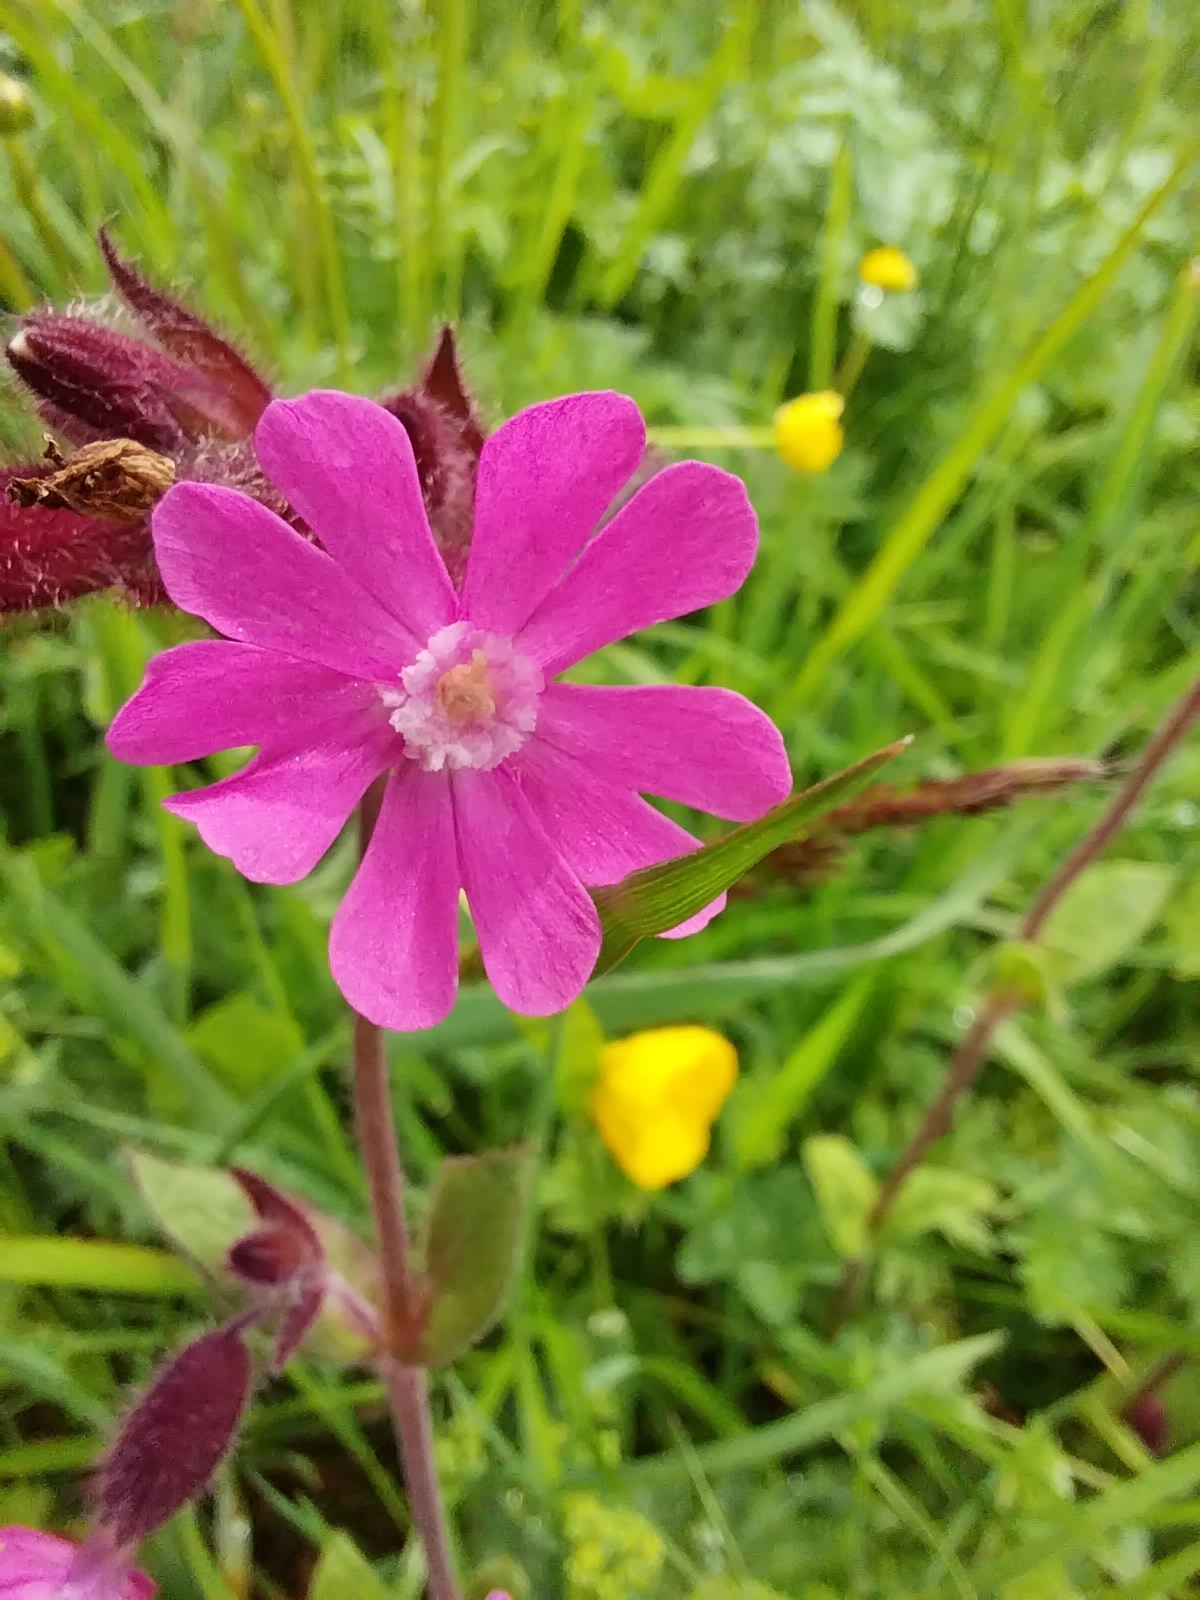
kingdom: Plantae
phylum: Tracheophyta
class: Magnoliopsida
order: Caryophyllales
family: Caryophyllaceae
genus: Silene
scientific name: Silene dioica
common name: Red campion
